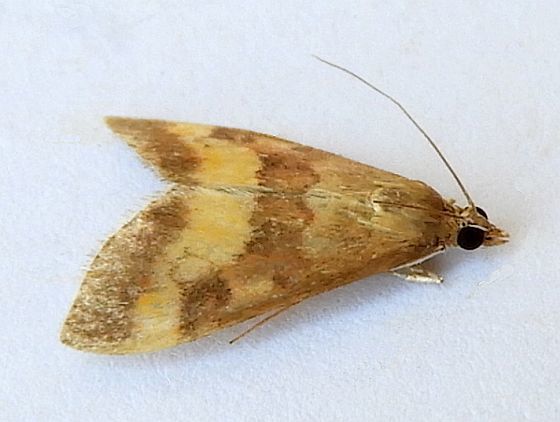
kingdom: Animalia
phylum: Arthropoda
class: Insecta
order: Lepidoptera
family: Crambidae
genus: Pyrausta
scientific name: Pyrausta flavofascialis
